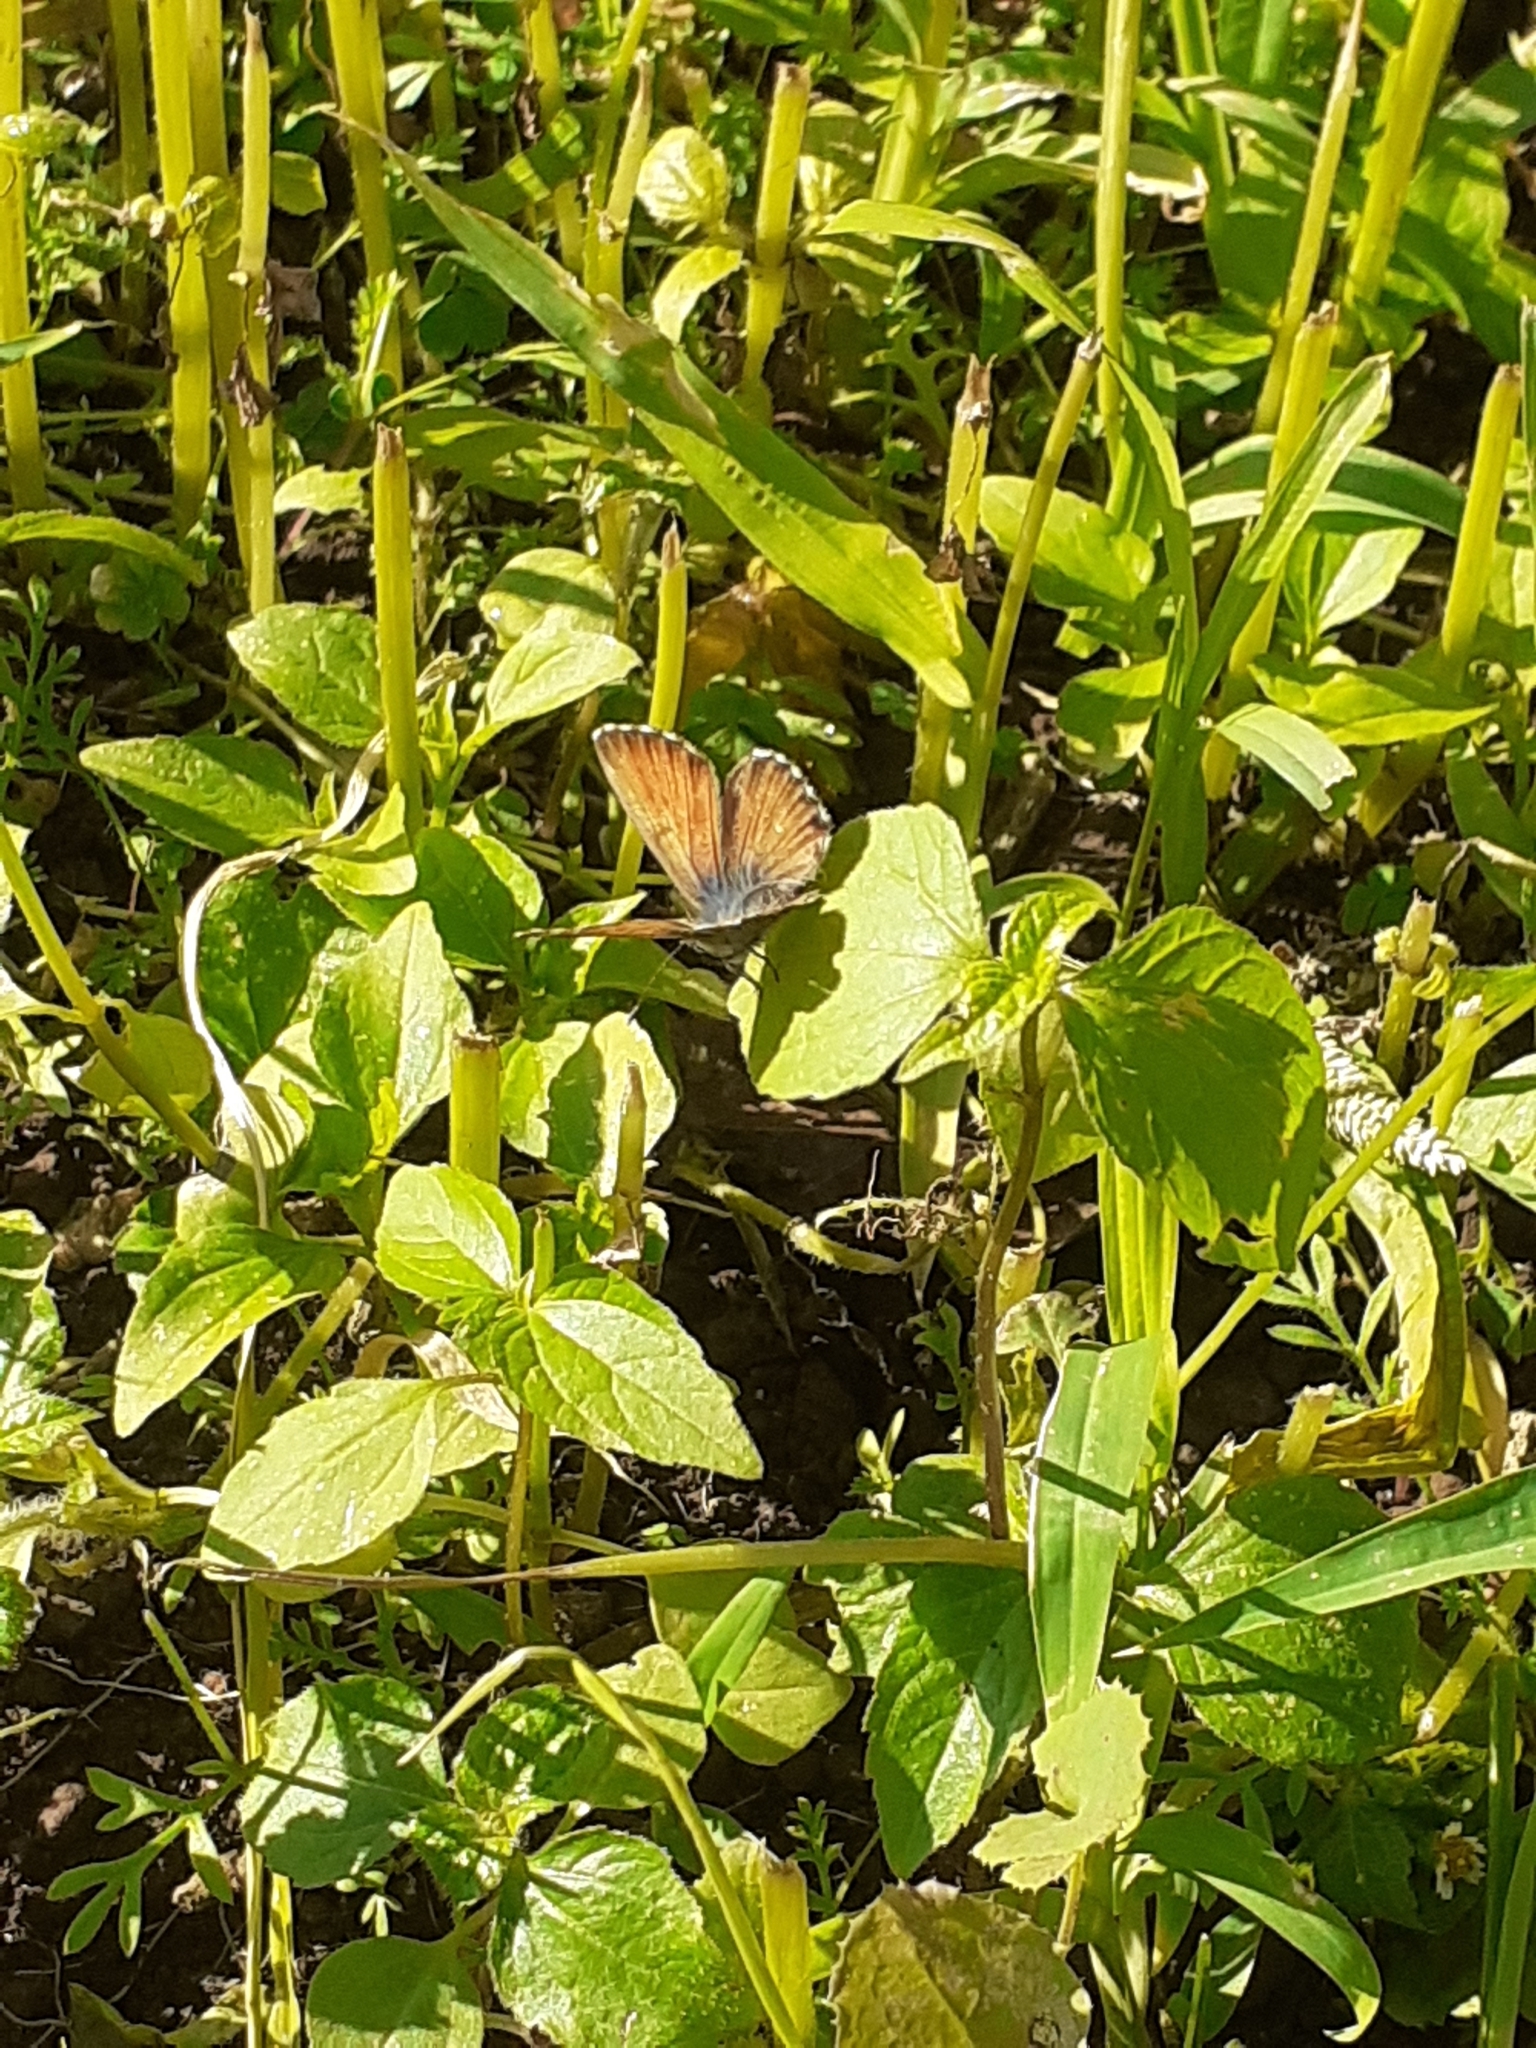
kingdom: Animalia
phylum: Arthropoda
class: Insecta
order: Lepidoptera
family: Lycaenidae
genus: Cyclyrius
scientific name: Cyclyrius webbianus
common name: Canary blue
